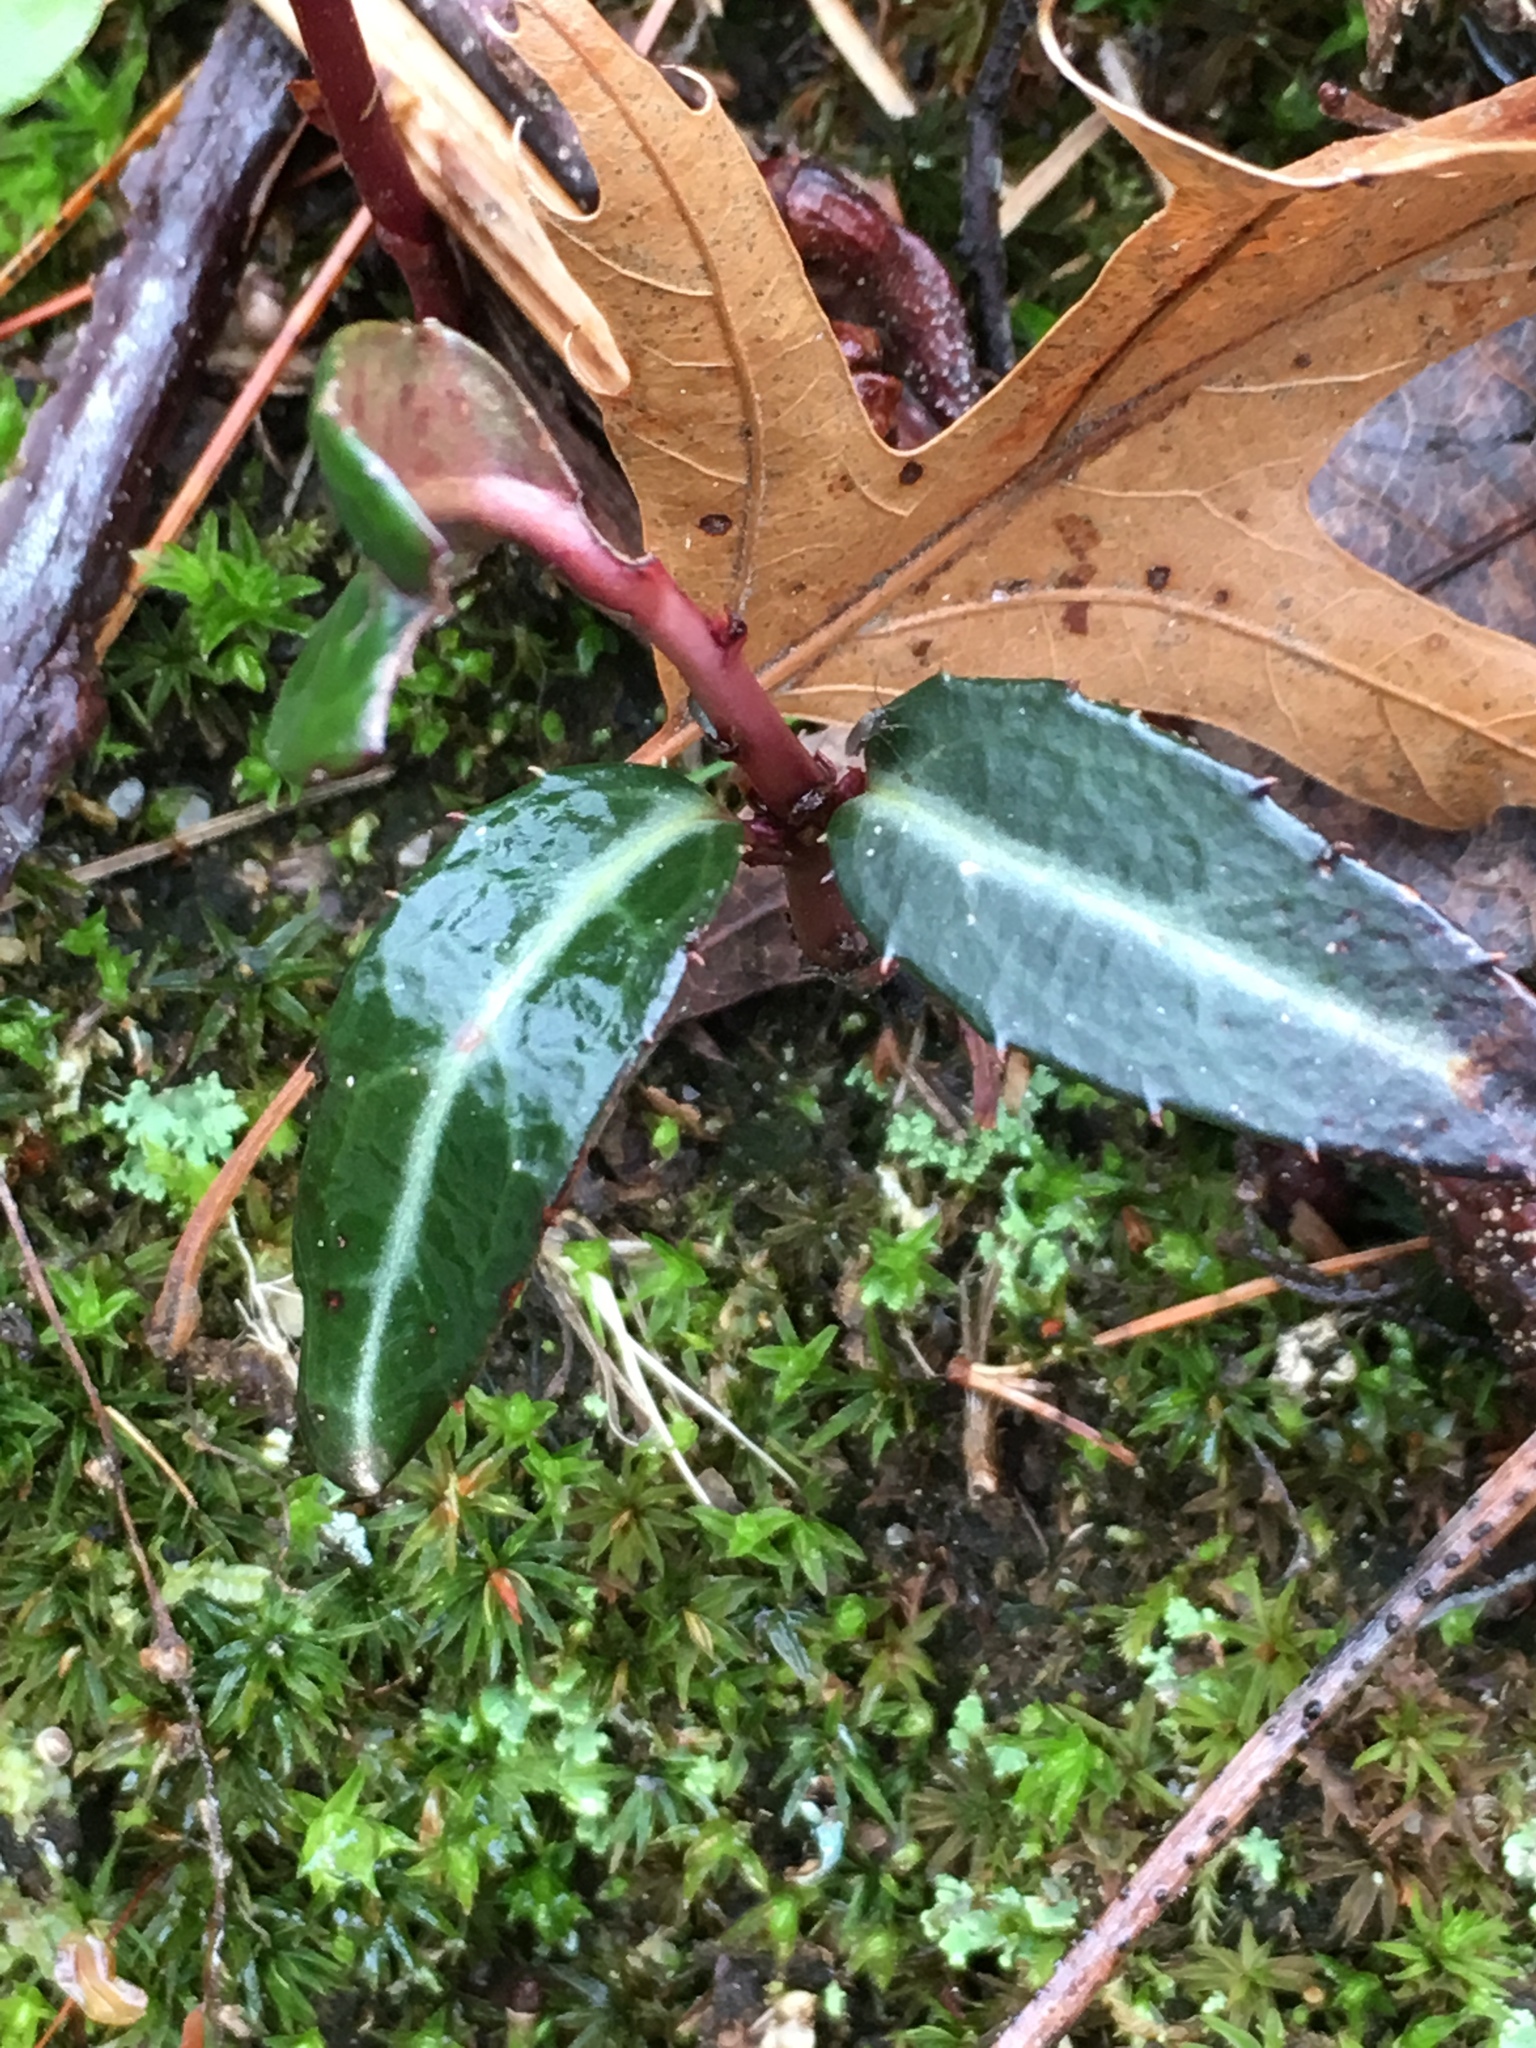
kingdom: Plantae
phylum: Tracheophyta
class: Magnoliopsida
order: Ericales
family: Ericaceae
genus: Chimaphila
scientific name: Chimaphila maculata
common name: Spotted pipsissewa
